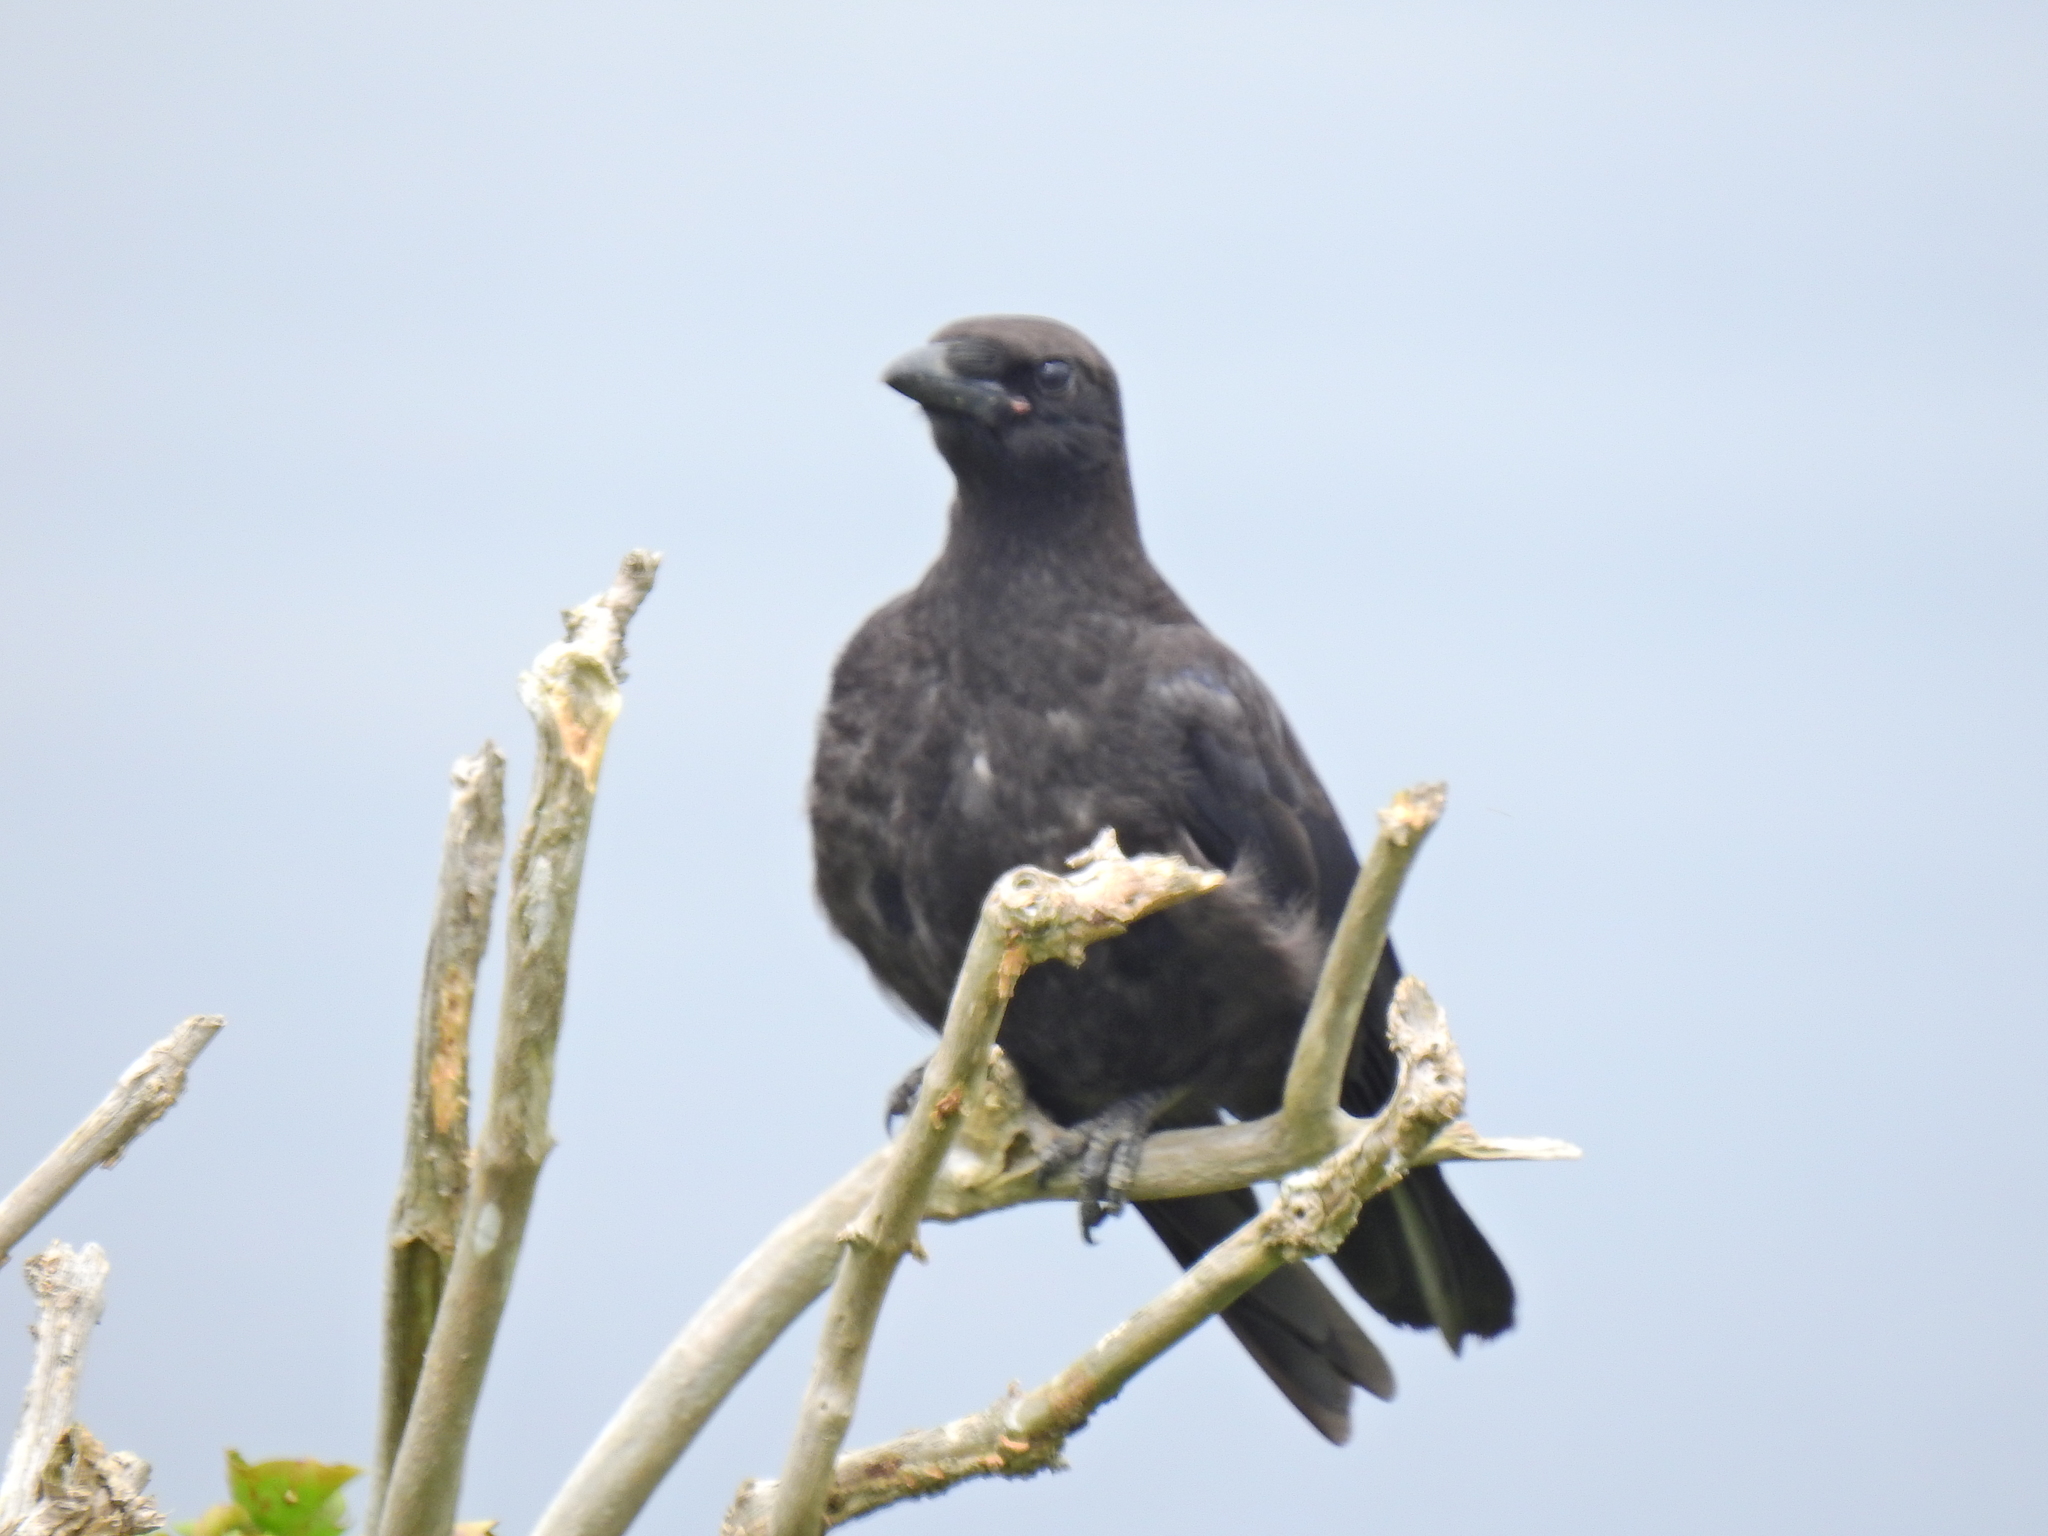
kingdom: Animalia
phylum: Chordata
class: Aves
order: Passeriformes
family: Corvidae
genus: Corvus
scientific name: Corvus corone
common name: Carrion crow
